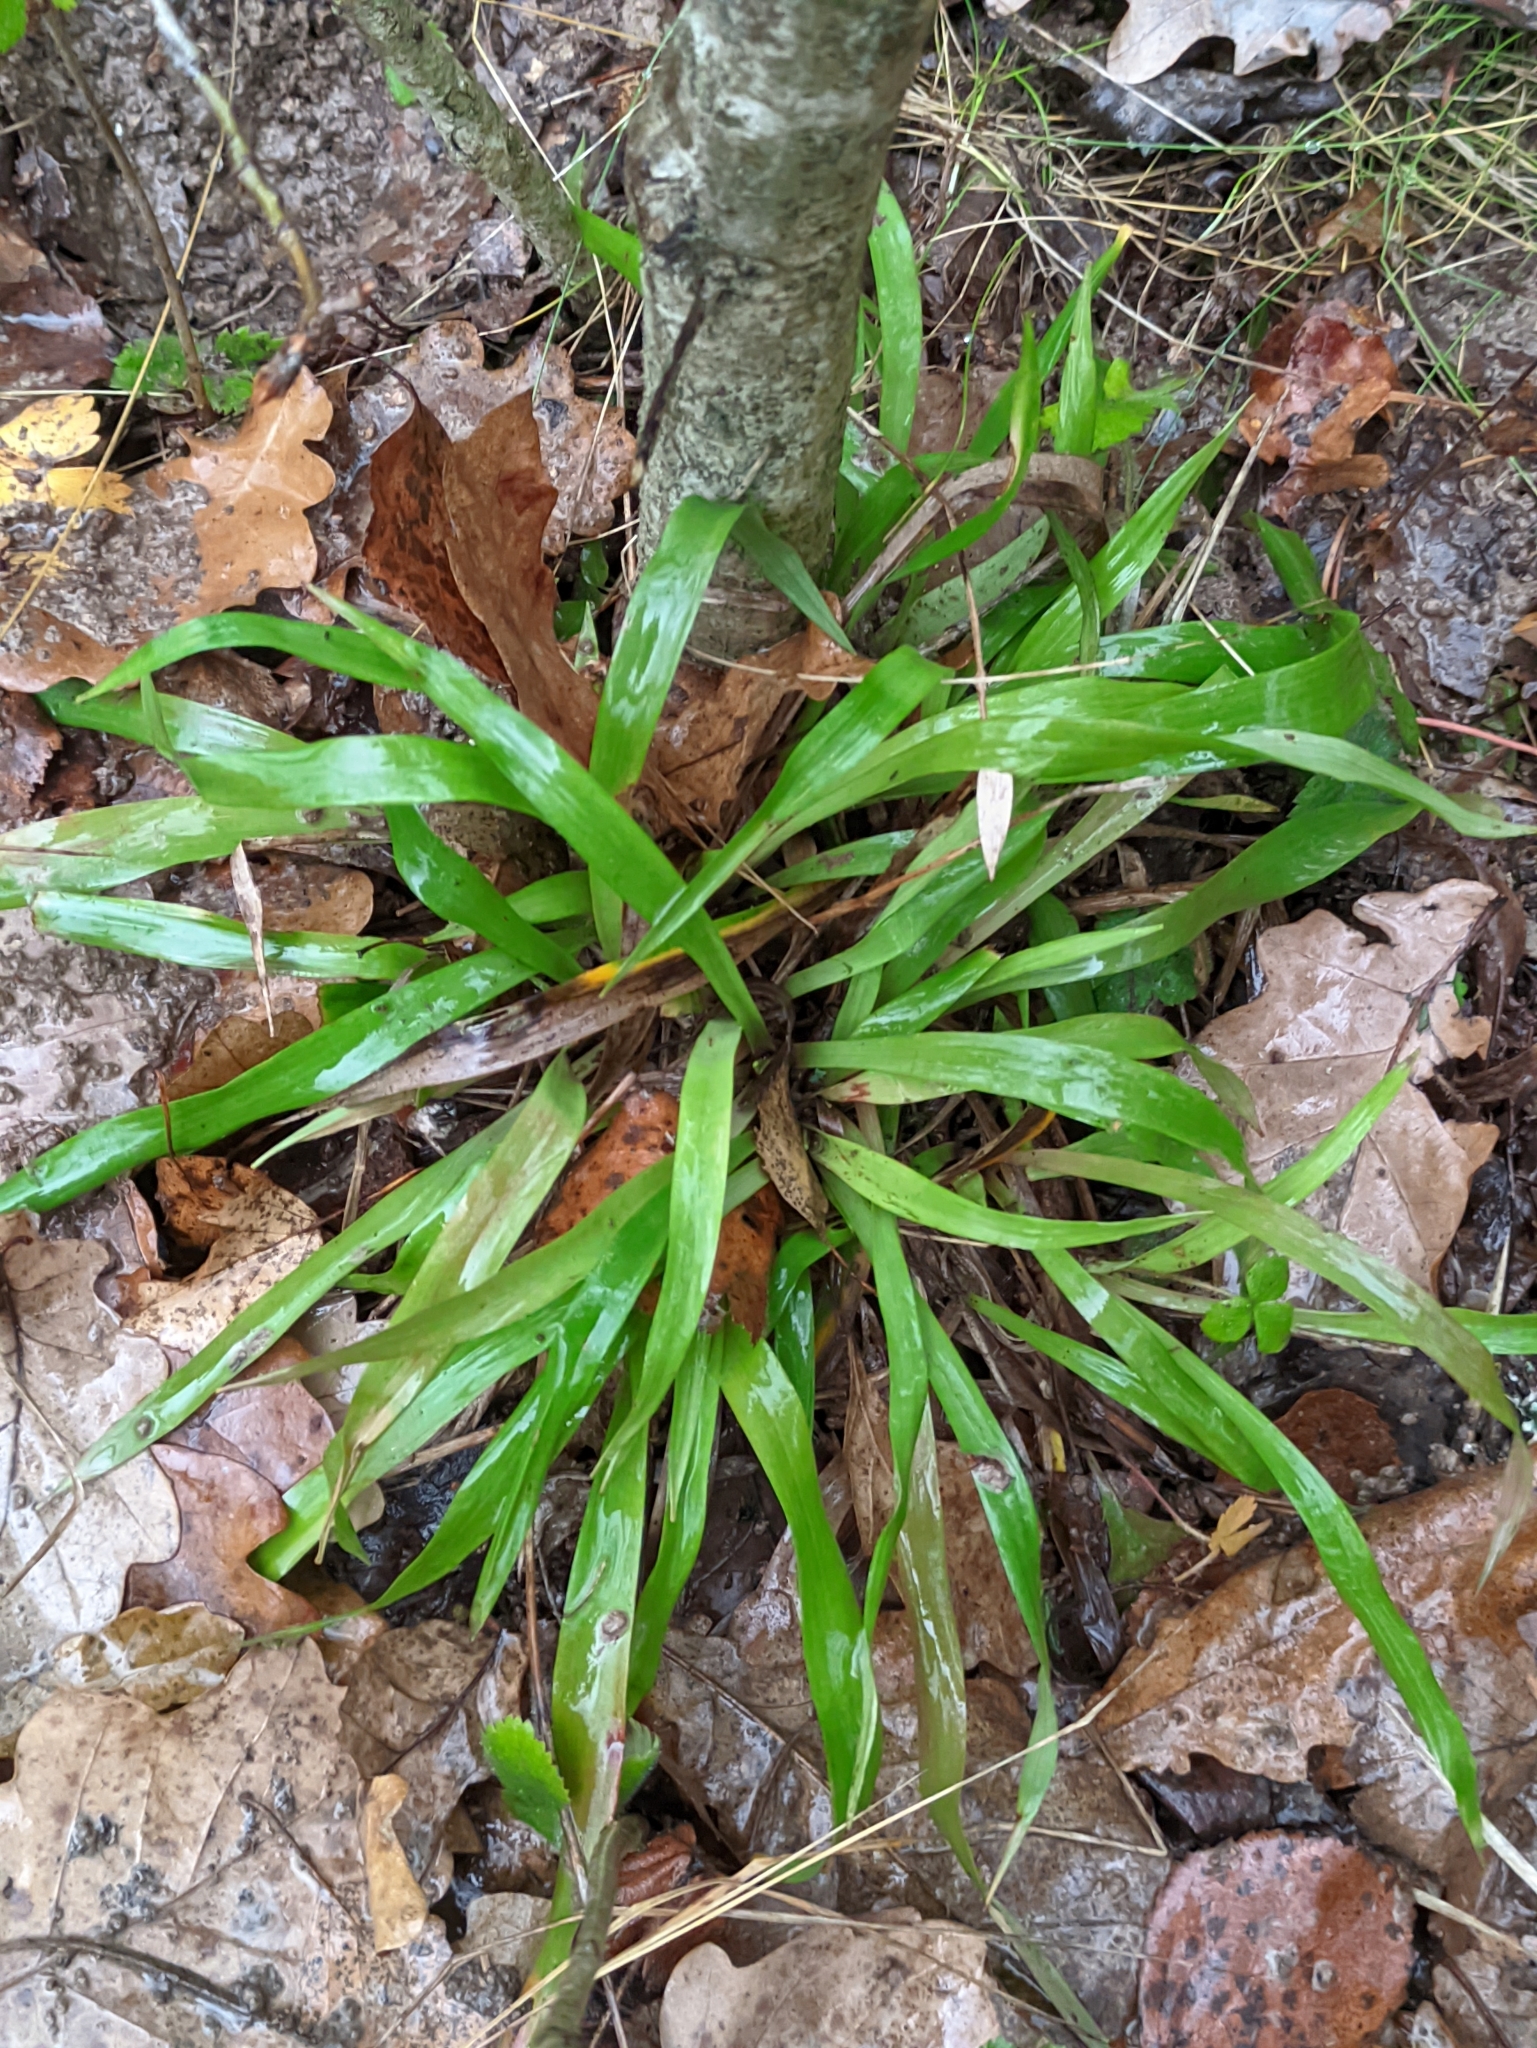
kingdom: Plantae
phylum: Tracheophyta
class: Liliopsida
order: Poales
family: Juncaceae
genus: Luzula
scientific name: Luzula pilosa
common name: Hairy wood-rush
